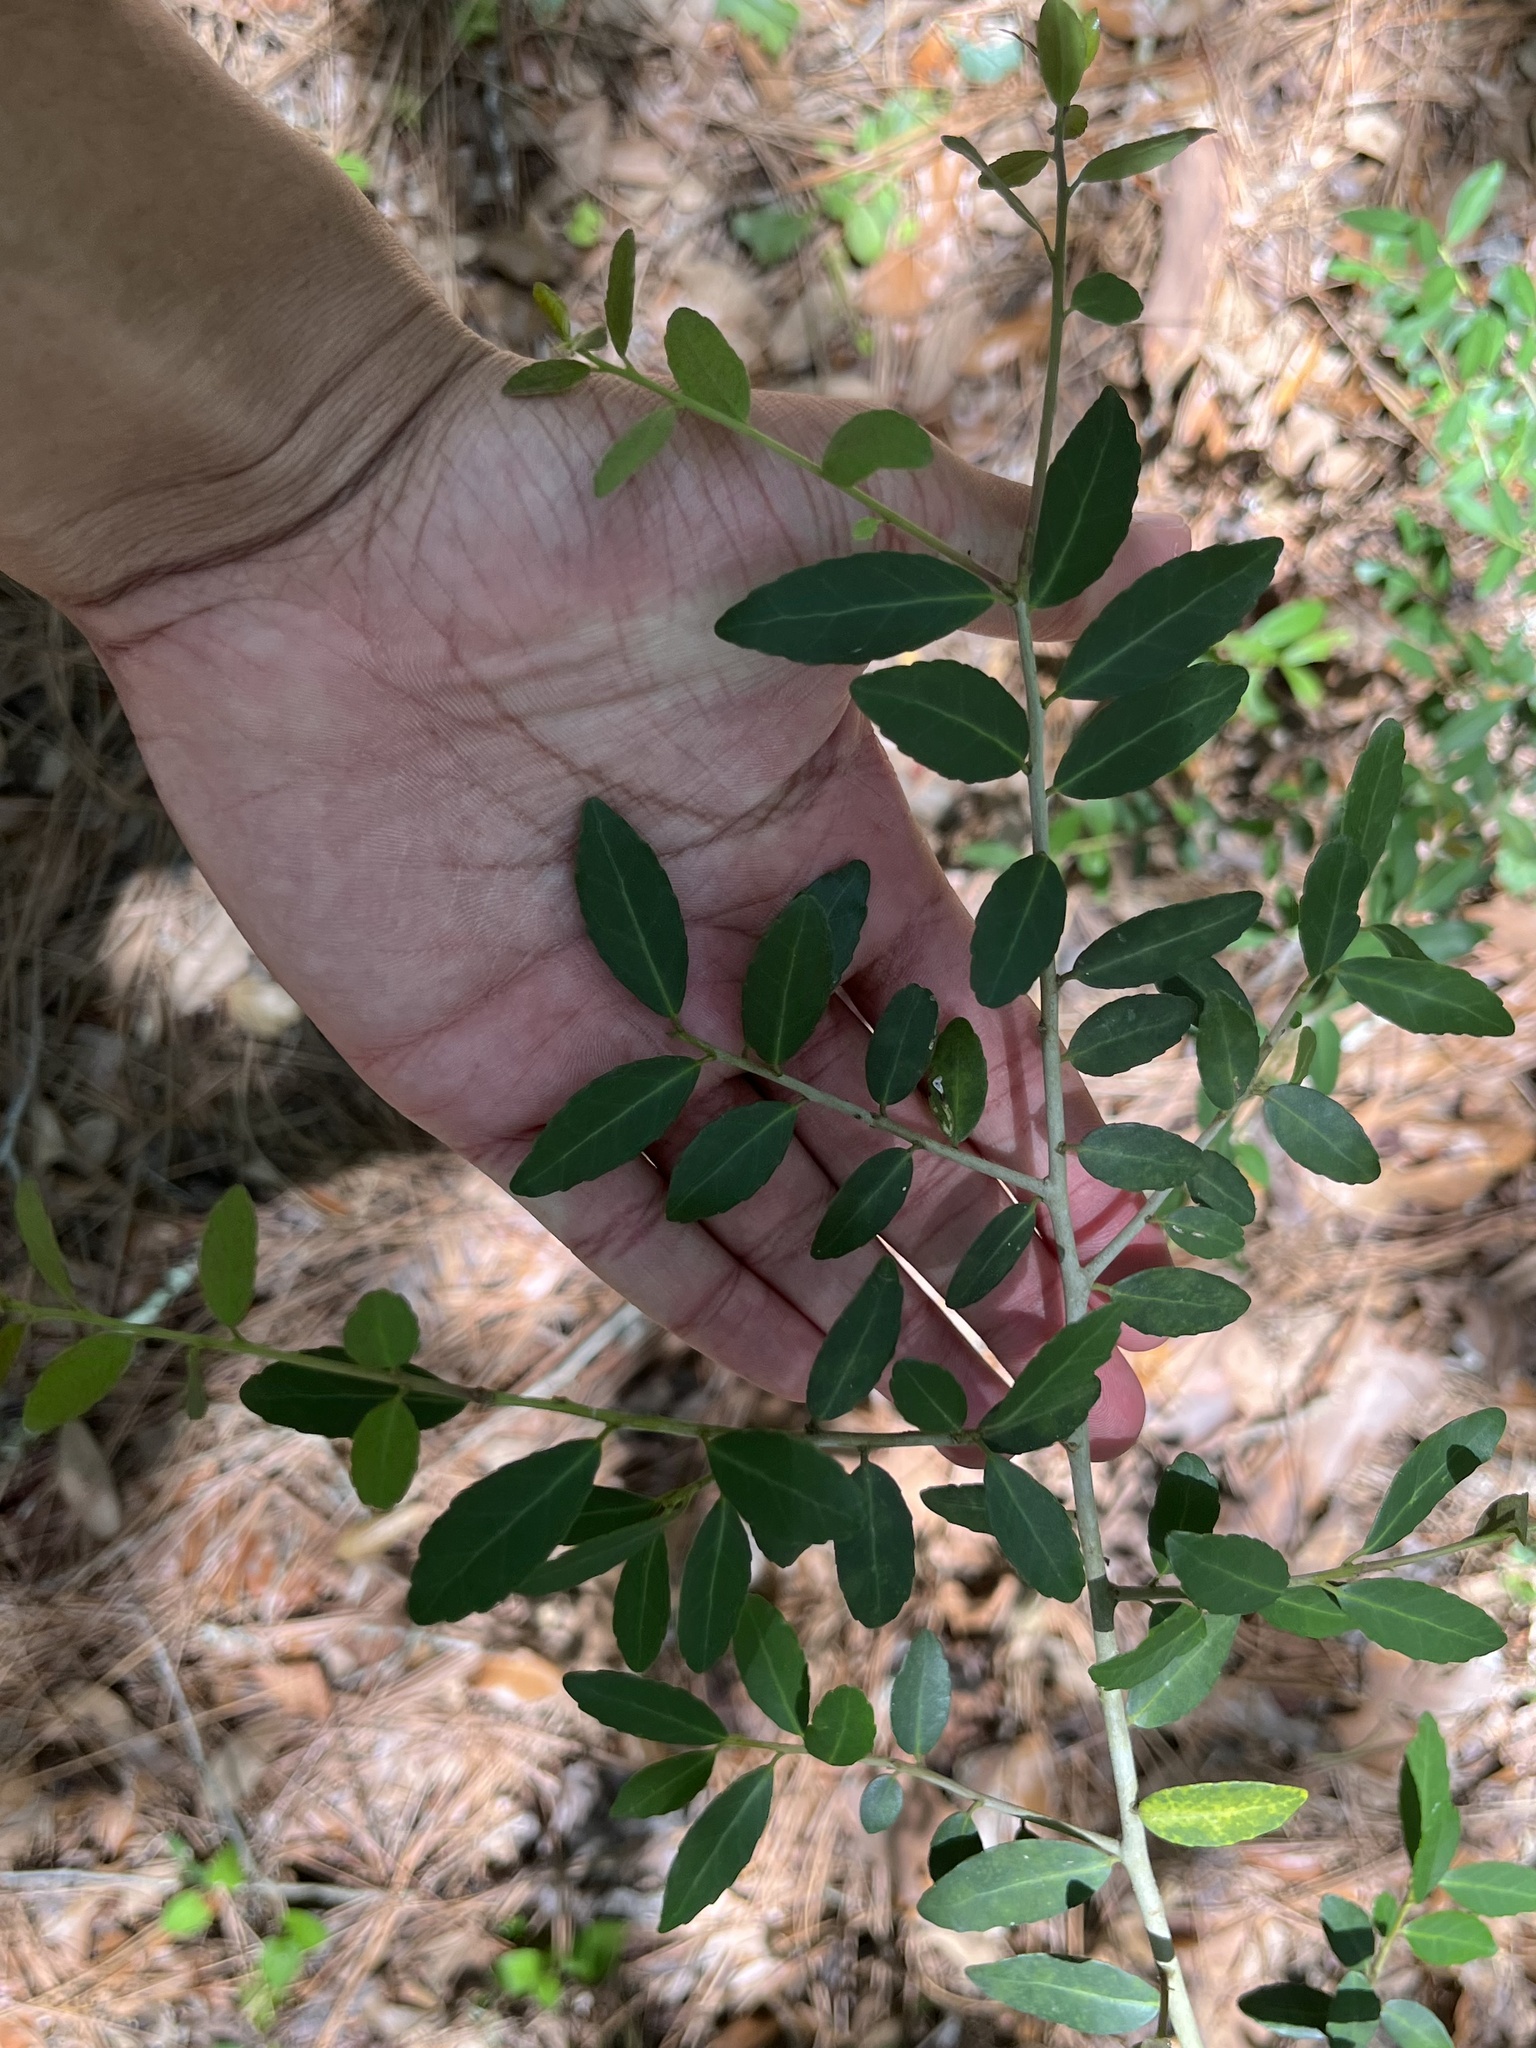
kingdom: Plantae
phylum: Tracheophyta
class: Magnoliopsida
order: Aquifoliales
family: Aquifoliaceae
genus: Ilex
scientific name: Ilex vomitoria
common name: Yaupon holly
